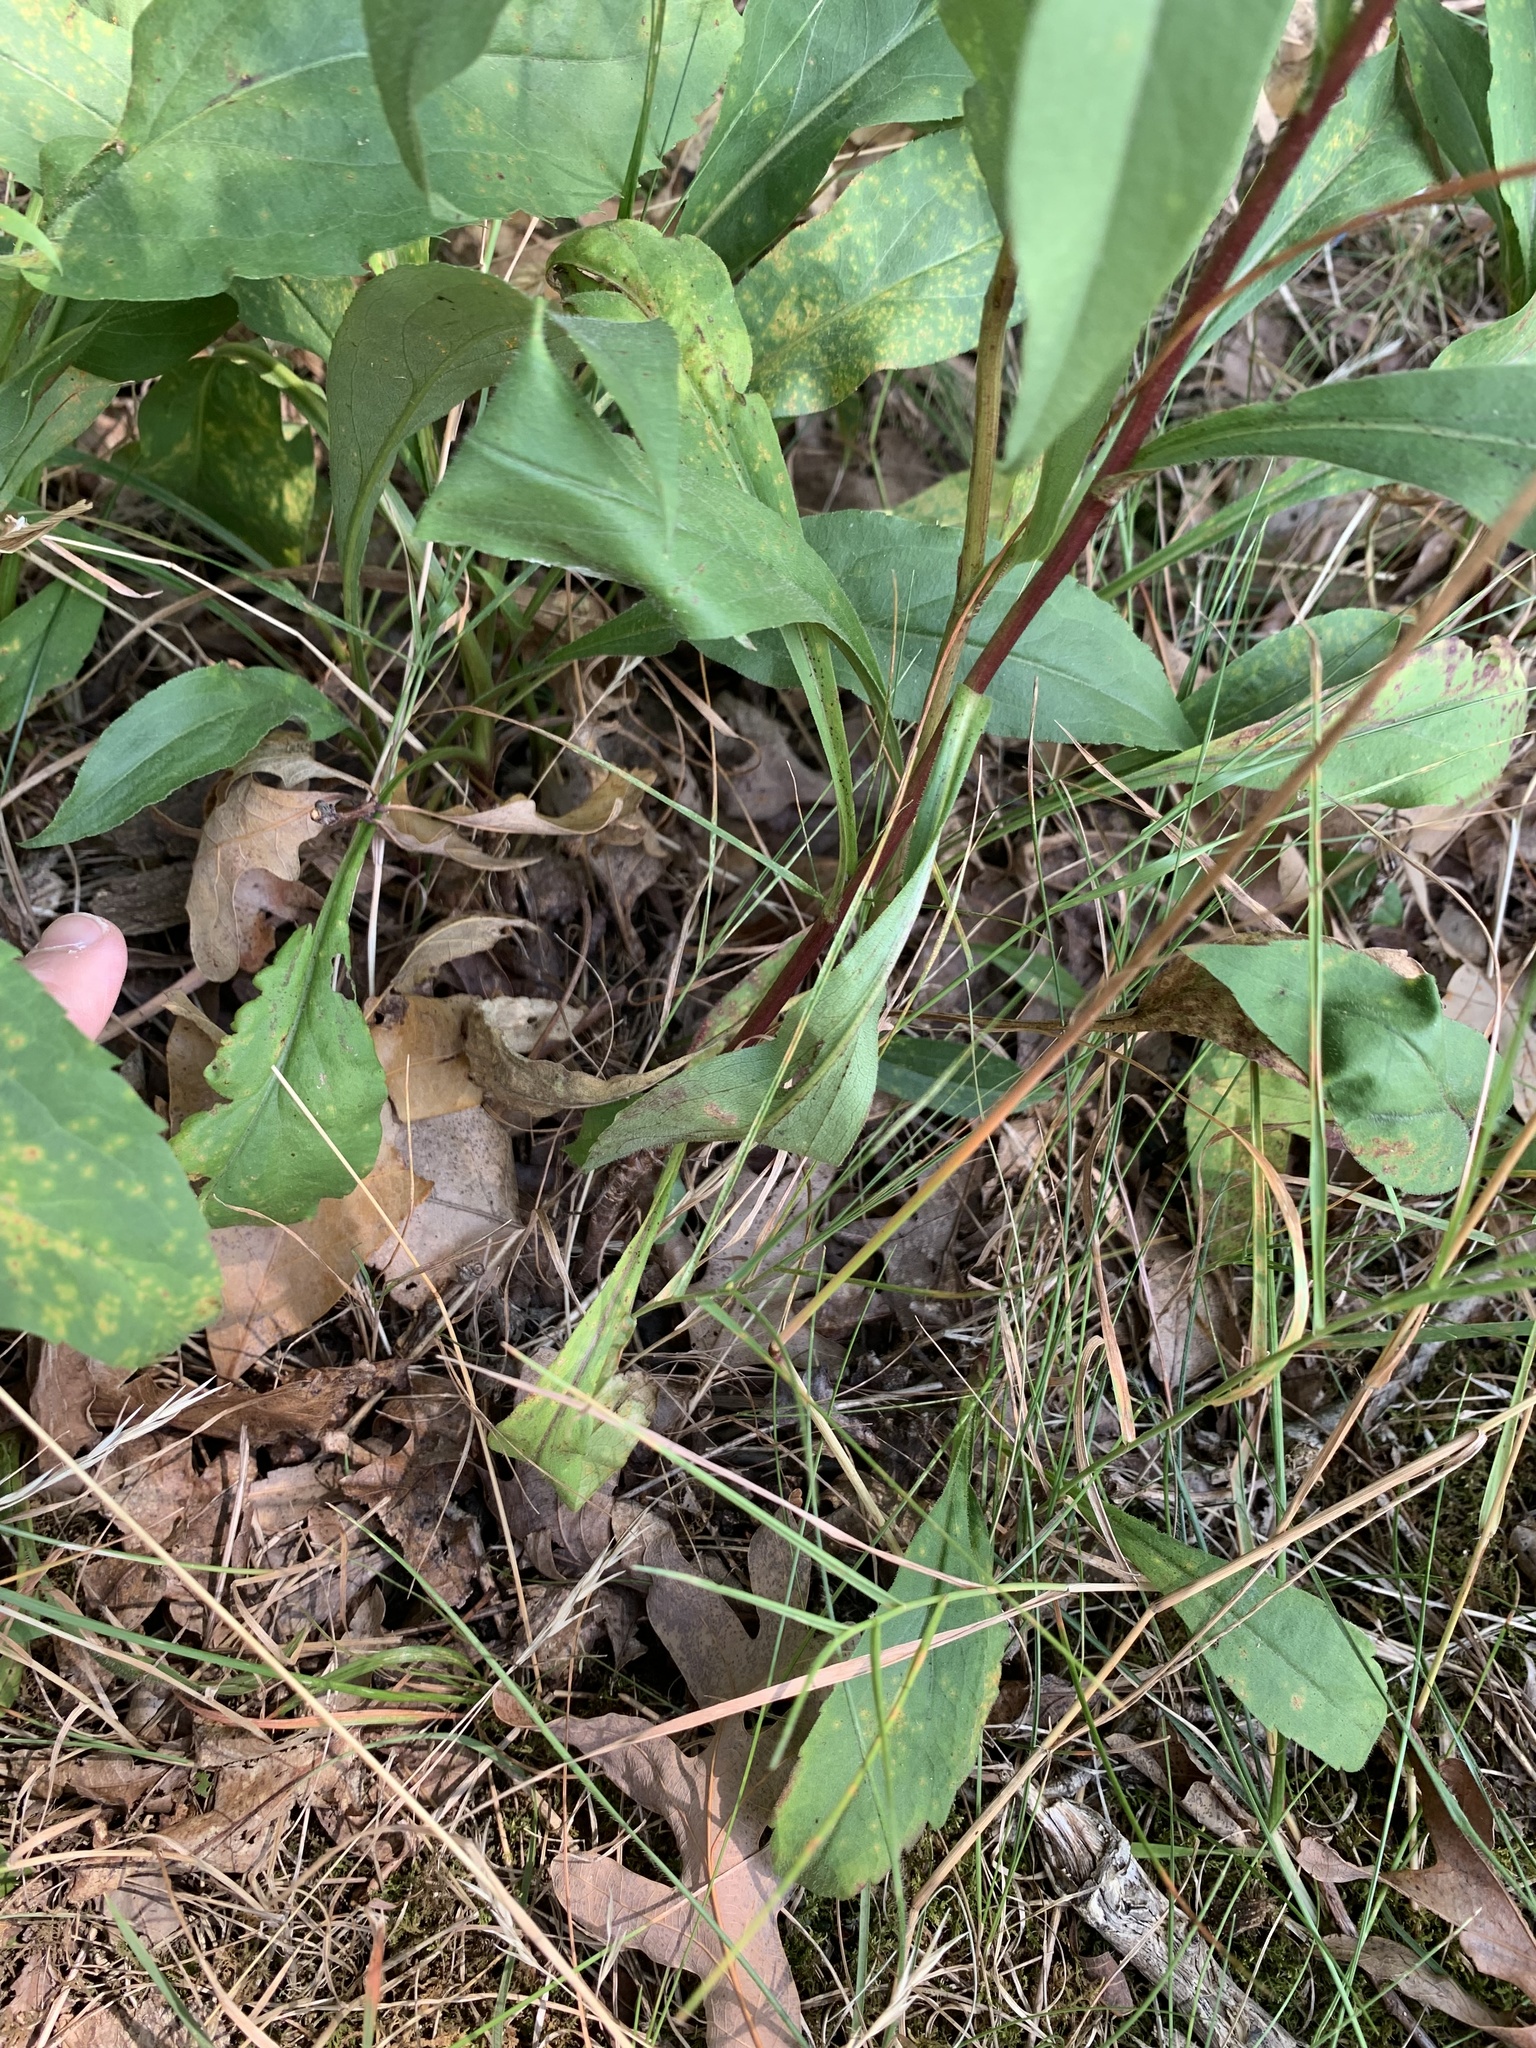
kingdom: Plantae
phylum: Tracheophyta
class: Magnoliopsida
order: Asterales
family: Asteraceae
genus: Solidago
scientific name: Solidago juncea
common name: Early goldenrod
